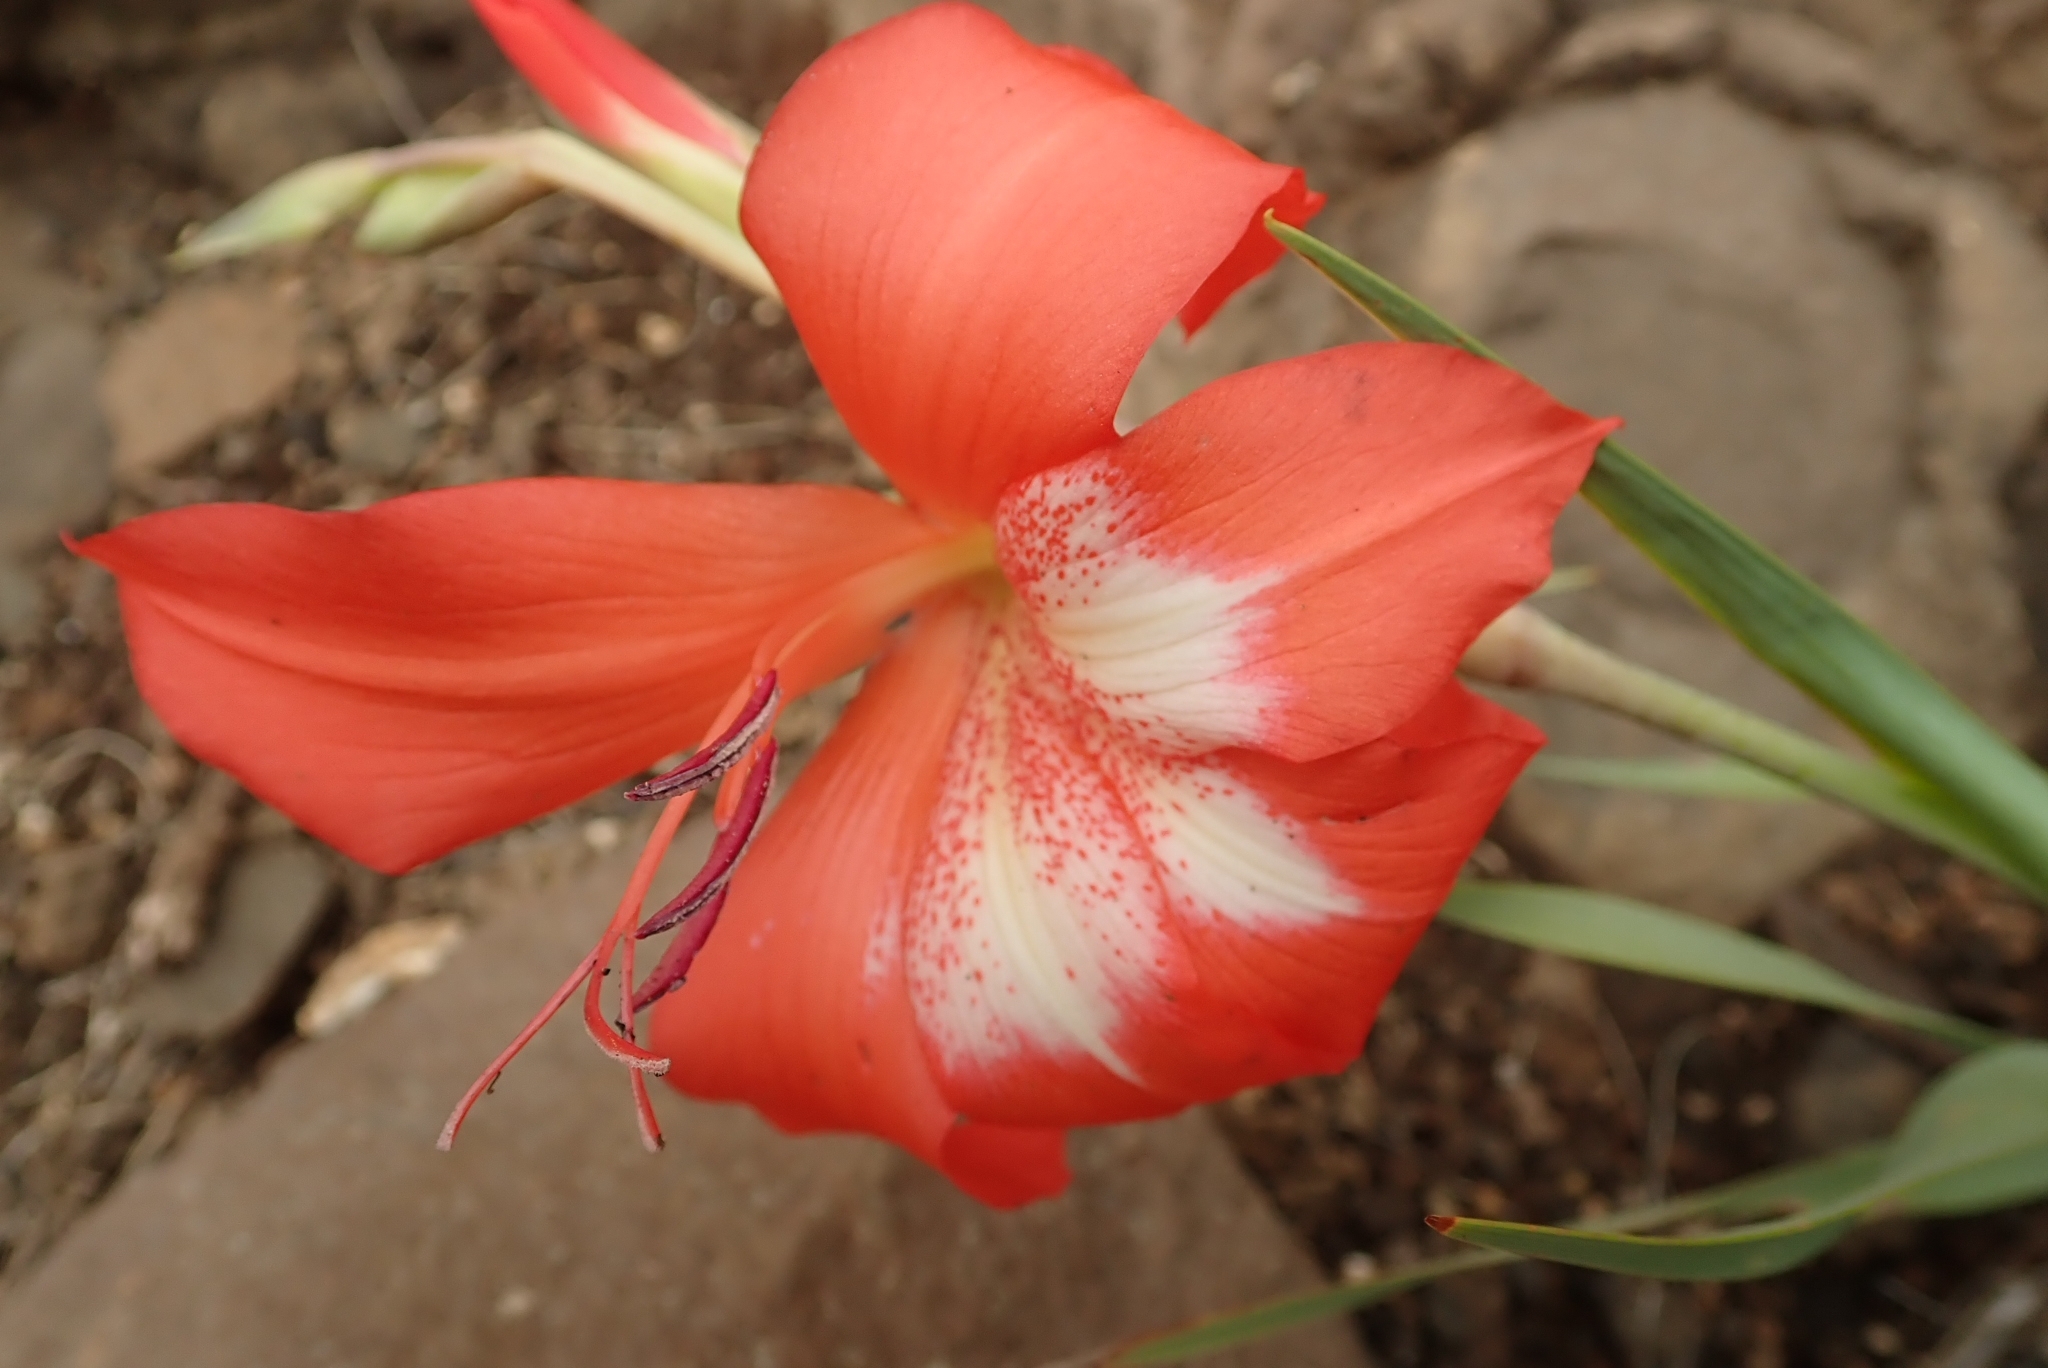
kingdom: Plantae
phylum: Tracheophyta
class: Liliopsida
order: Asparagales
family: Iridaceae
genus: Gladiolus
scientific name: Gladiolus saundersii
